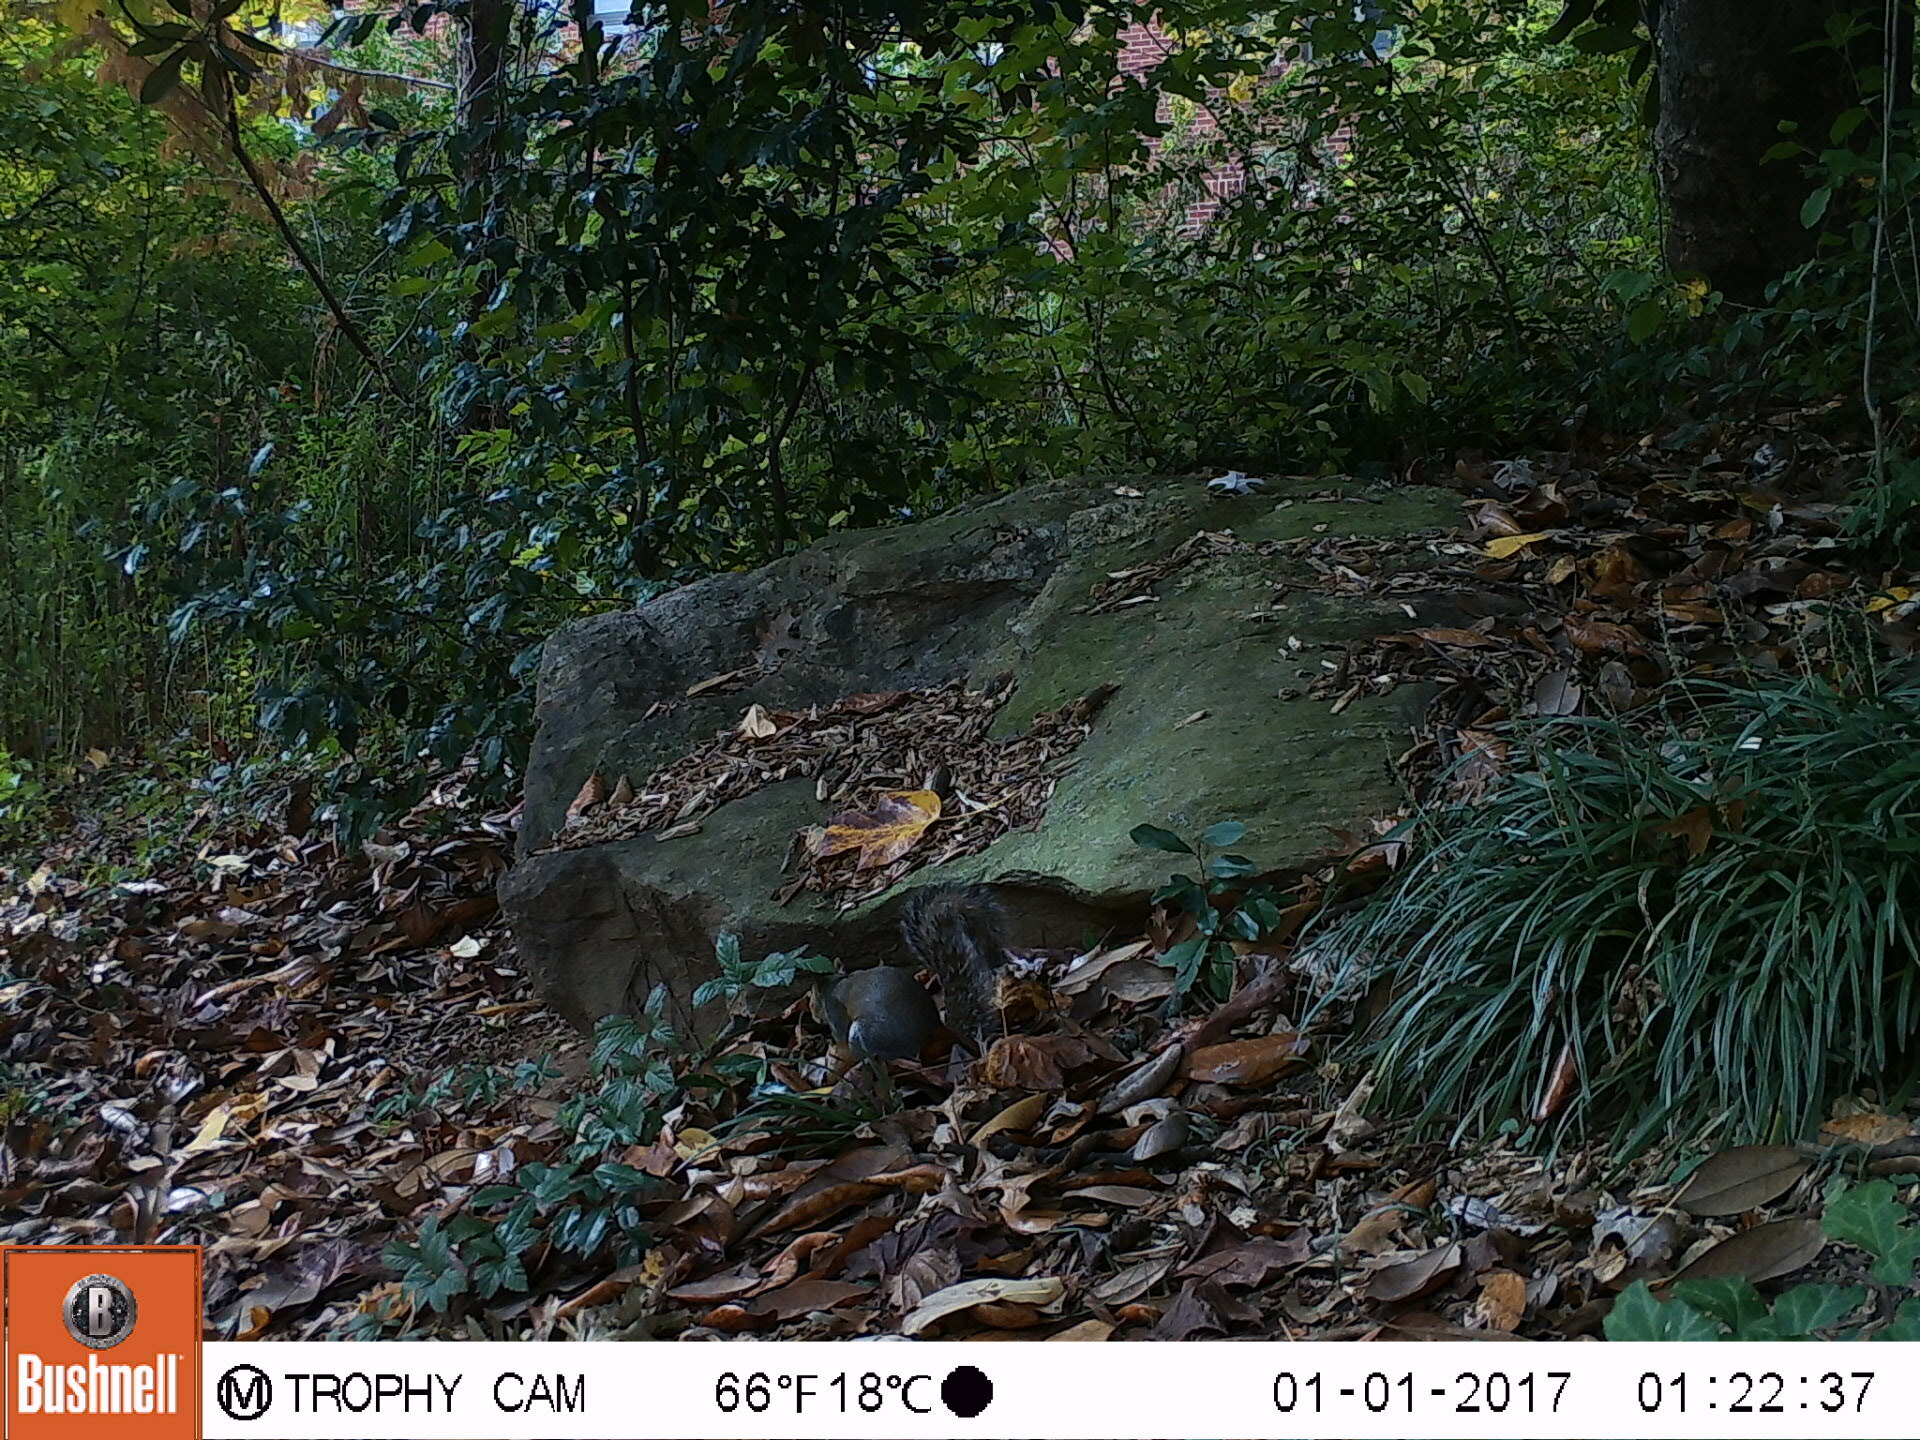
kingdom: Animalia
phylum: Chordata
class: Mammalia
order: Rodentia
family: Sciuridae
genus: Sciurus
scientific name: Sciurus carolinensis
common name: Eastern gray squirrel
